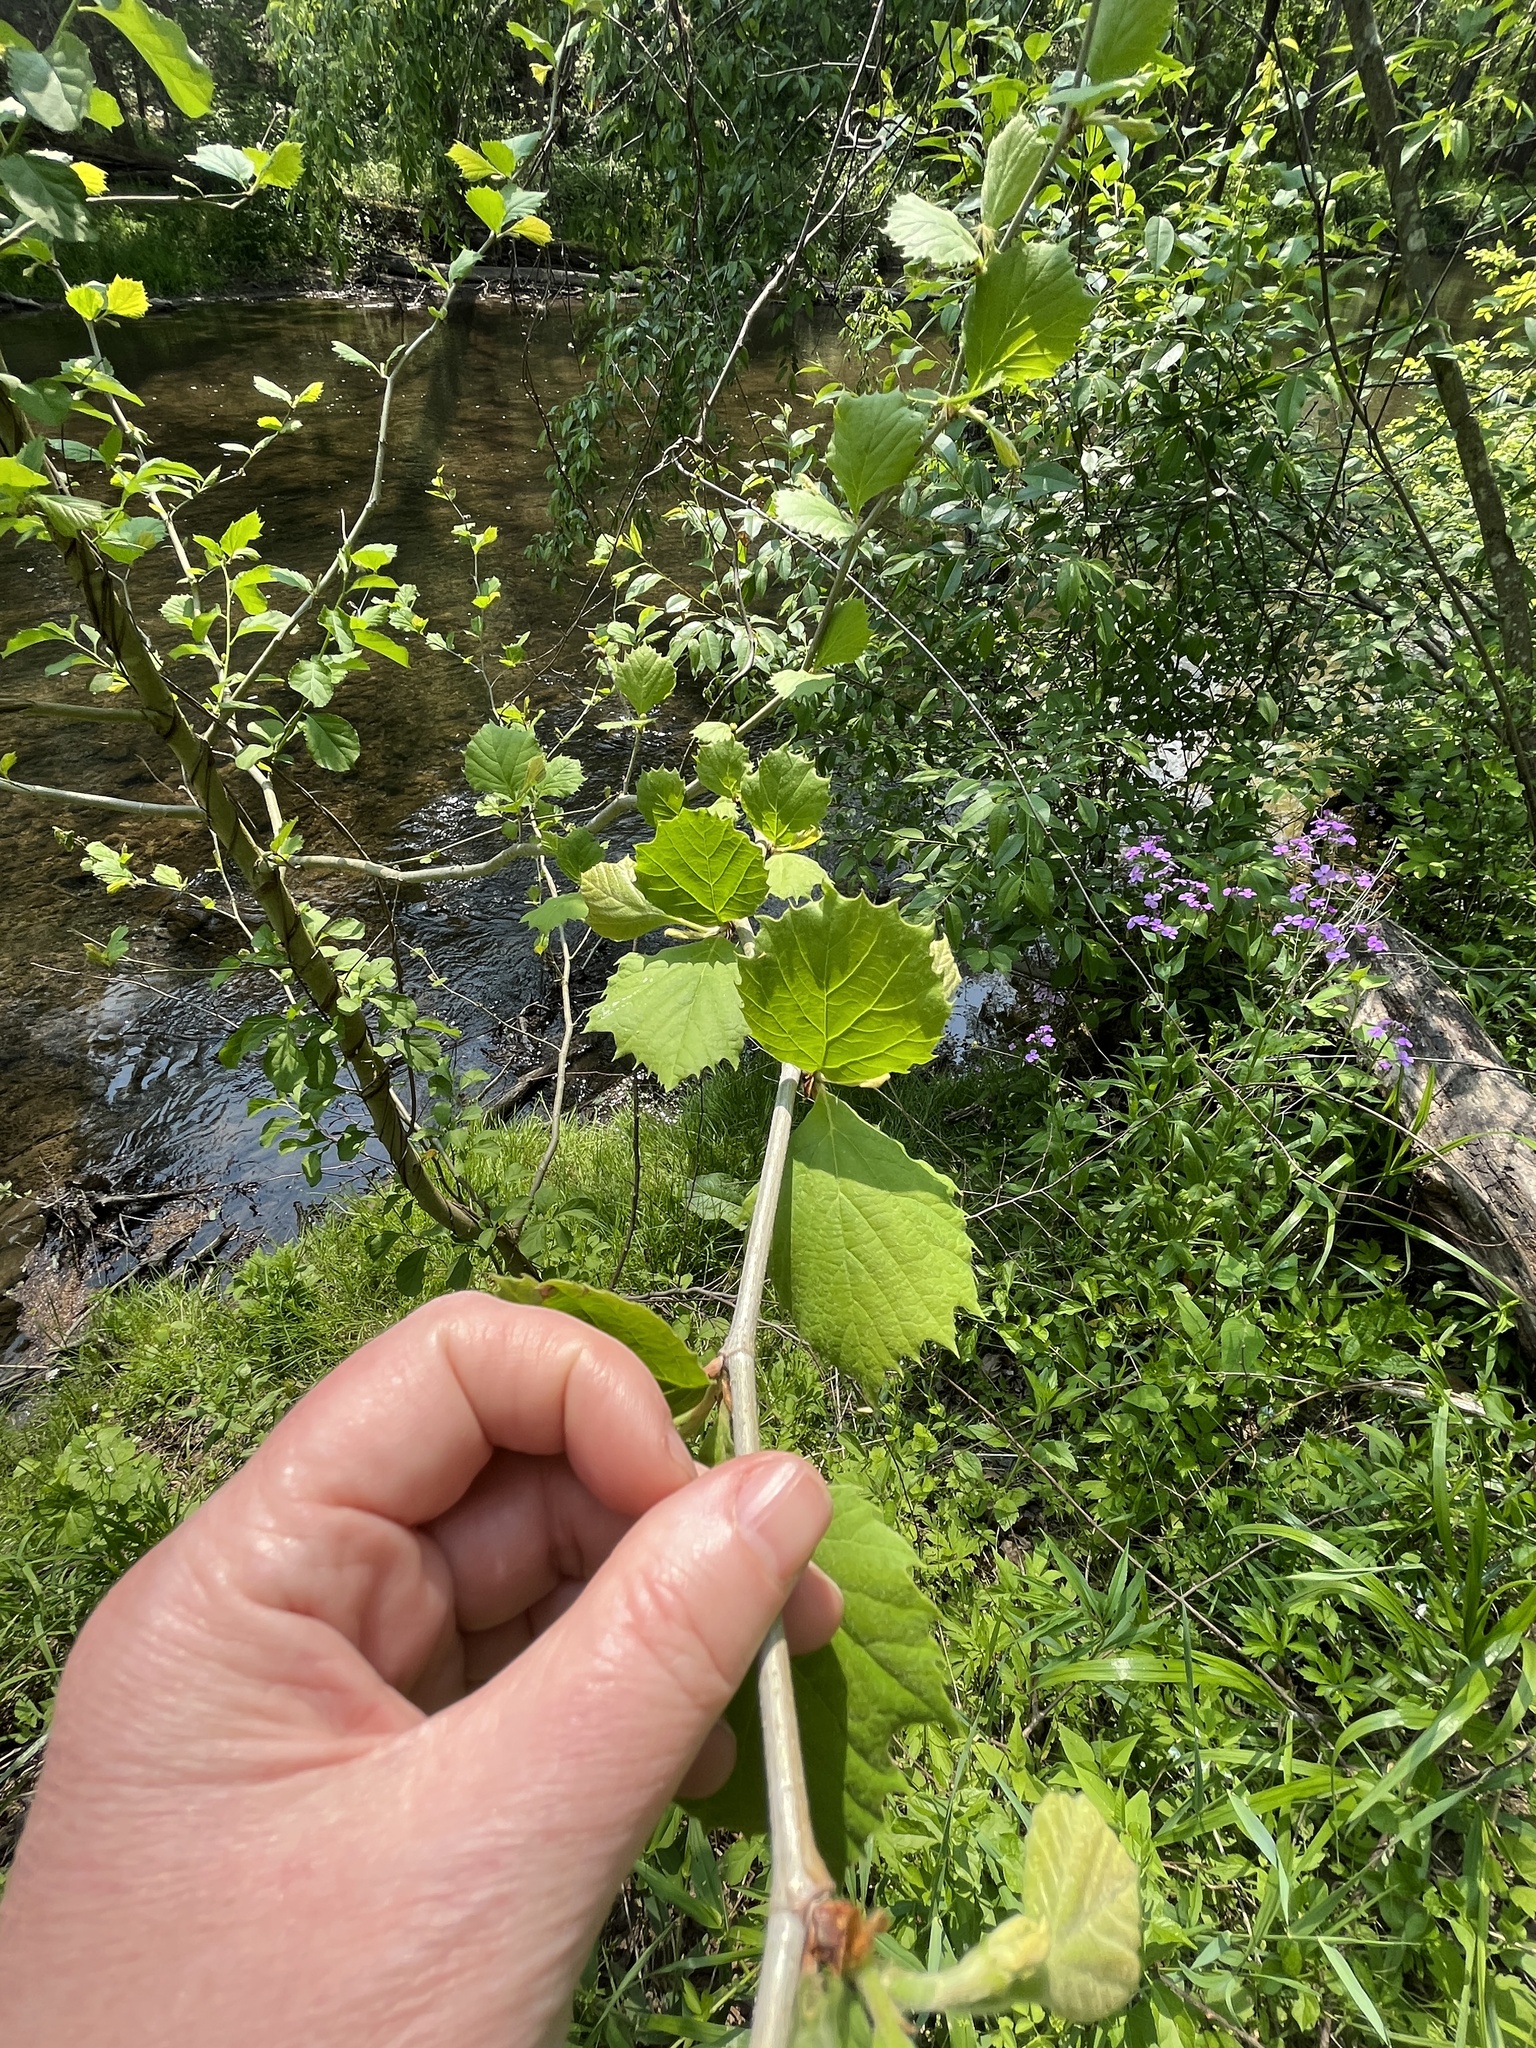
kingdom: Plantae
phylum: Tracheophyta
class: Magnoliopsida
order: Proteales
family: Platanaceae
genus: Platanus
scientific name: Platanus occidentalis
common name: American sycamore
